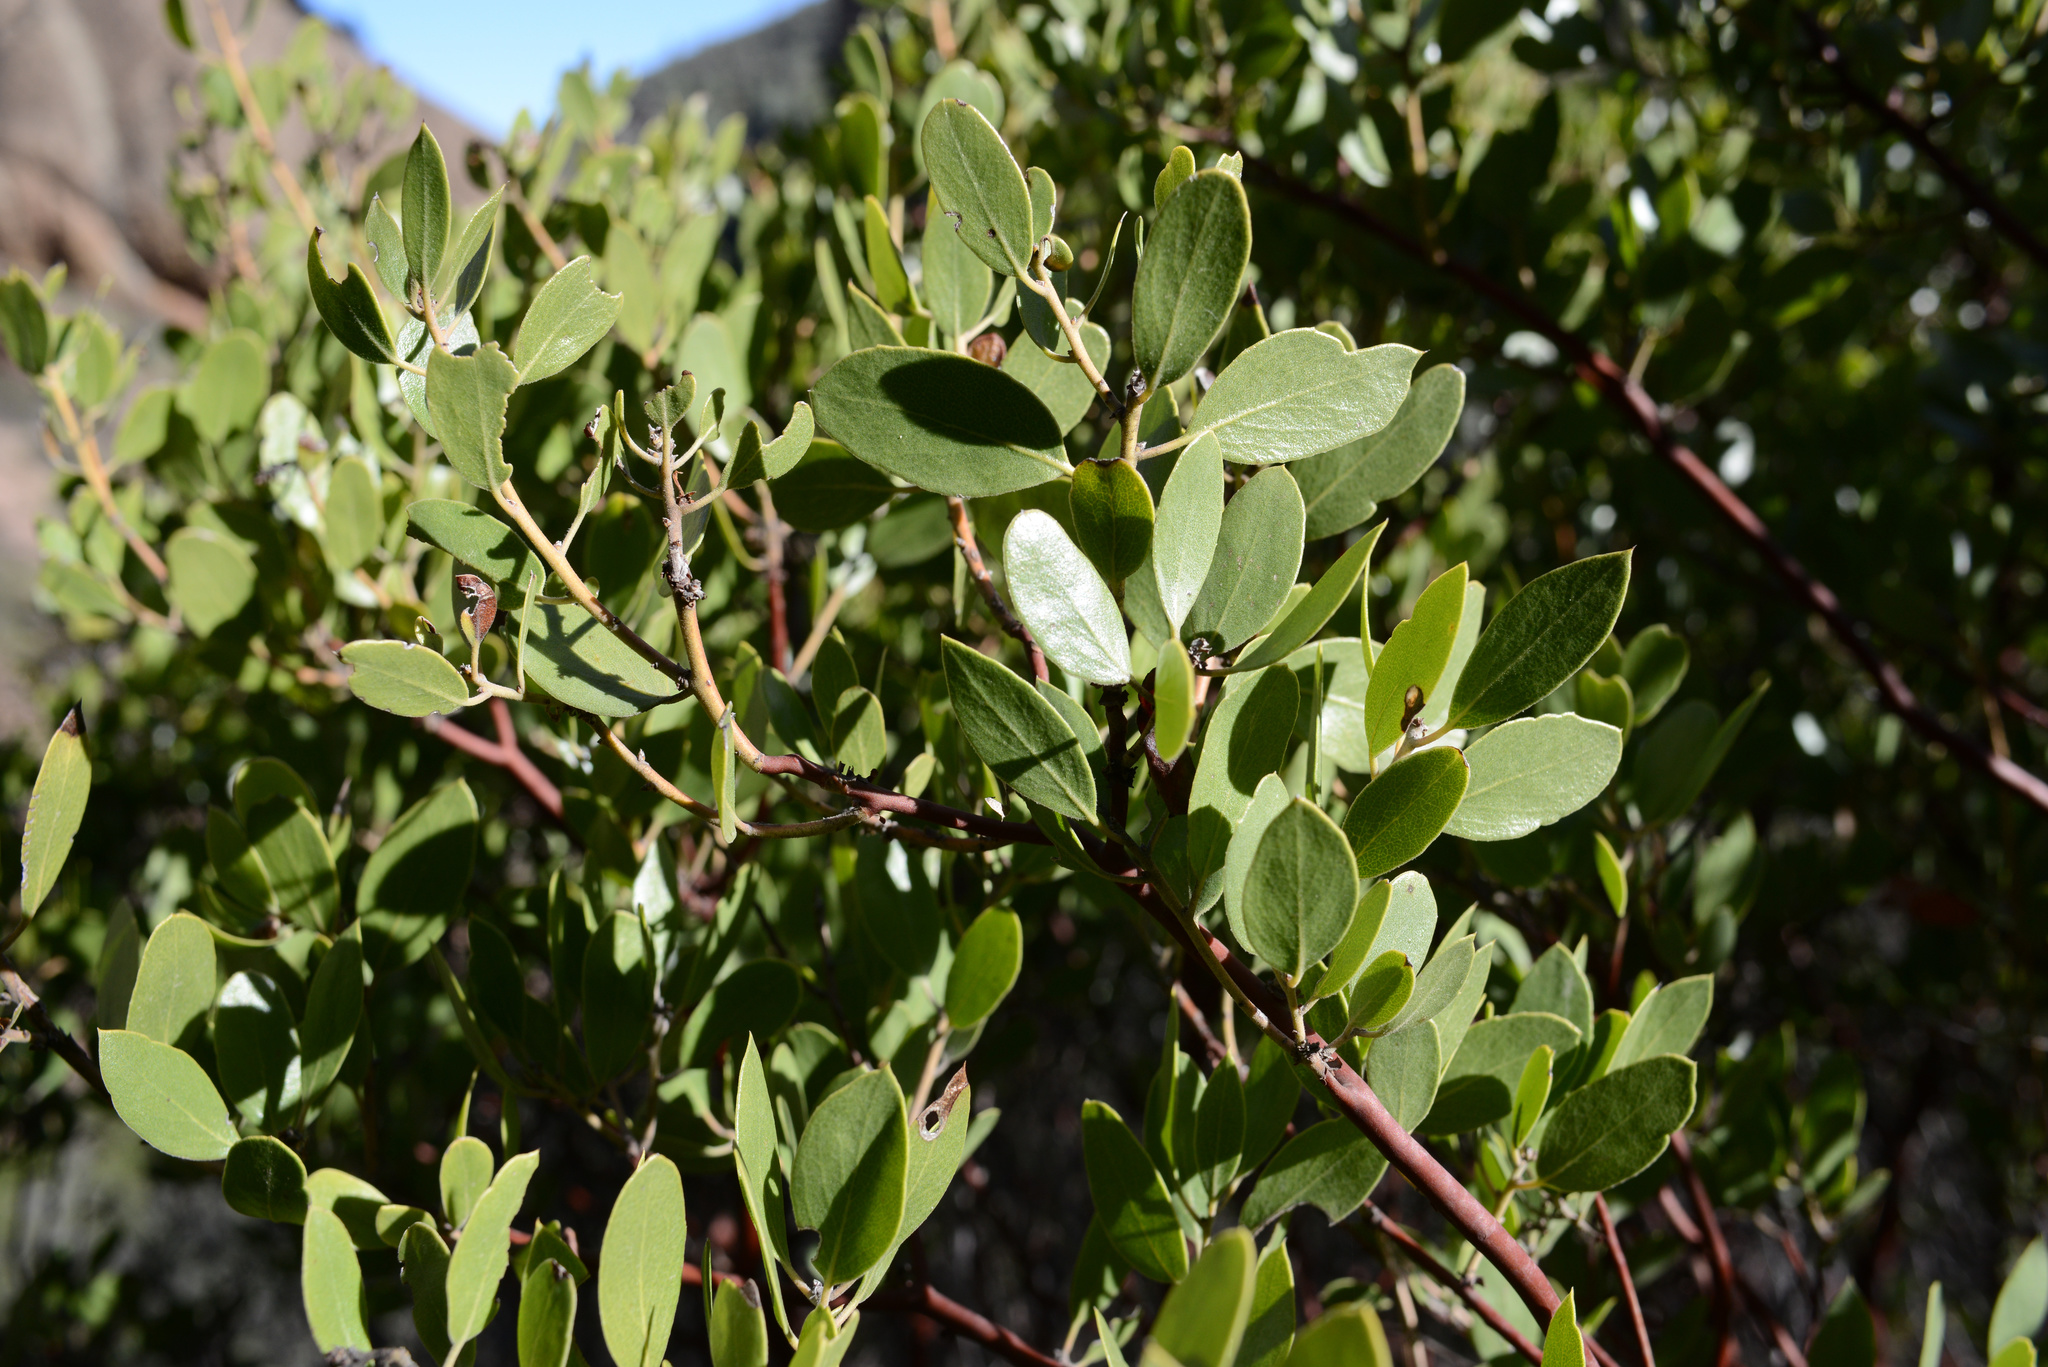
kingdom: Plantae
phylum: Tracheophyta
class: Magnoliopsida
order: Ericales
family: Ericaceae
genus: Arctostaphylos
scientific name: Arctostaphylos pungens
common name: Mexican manzanita
